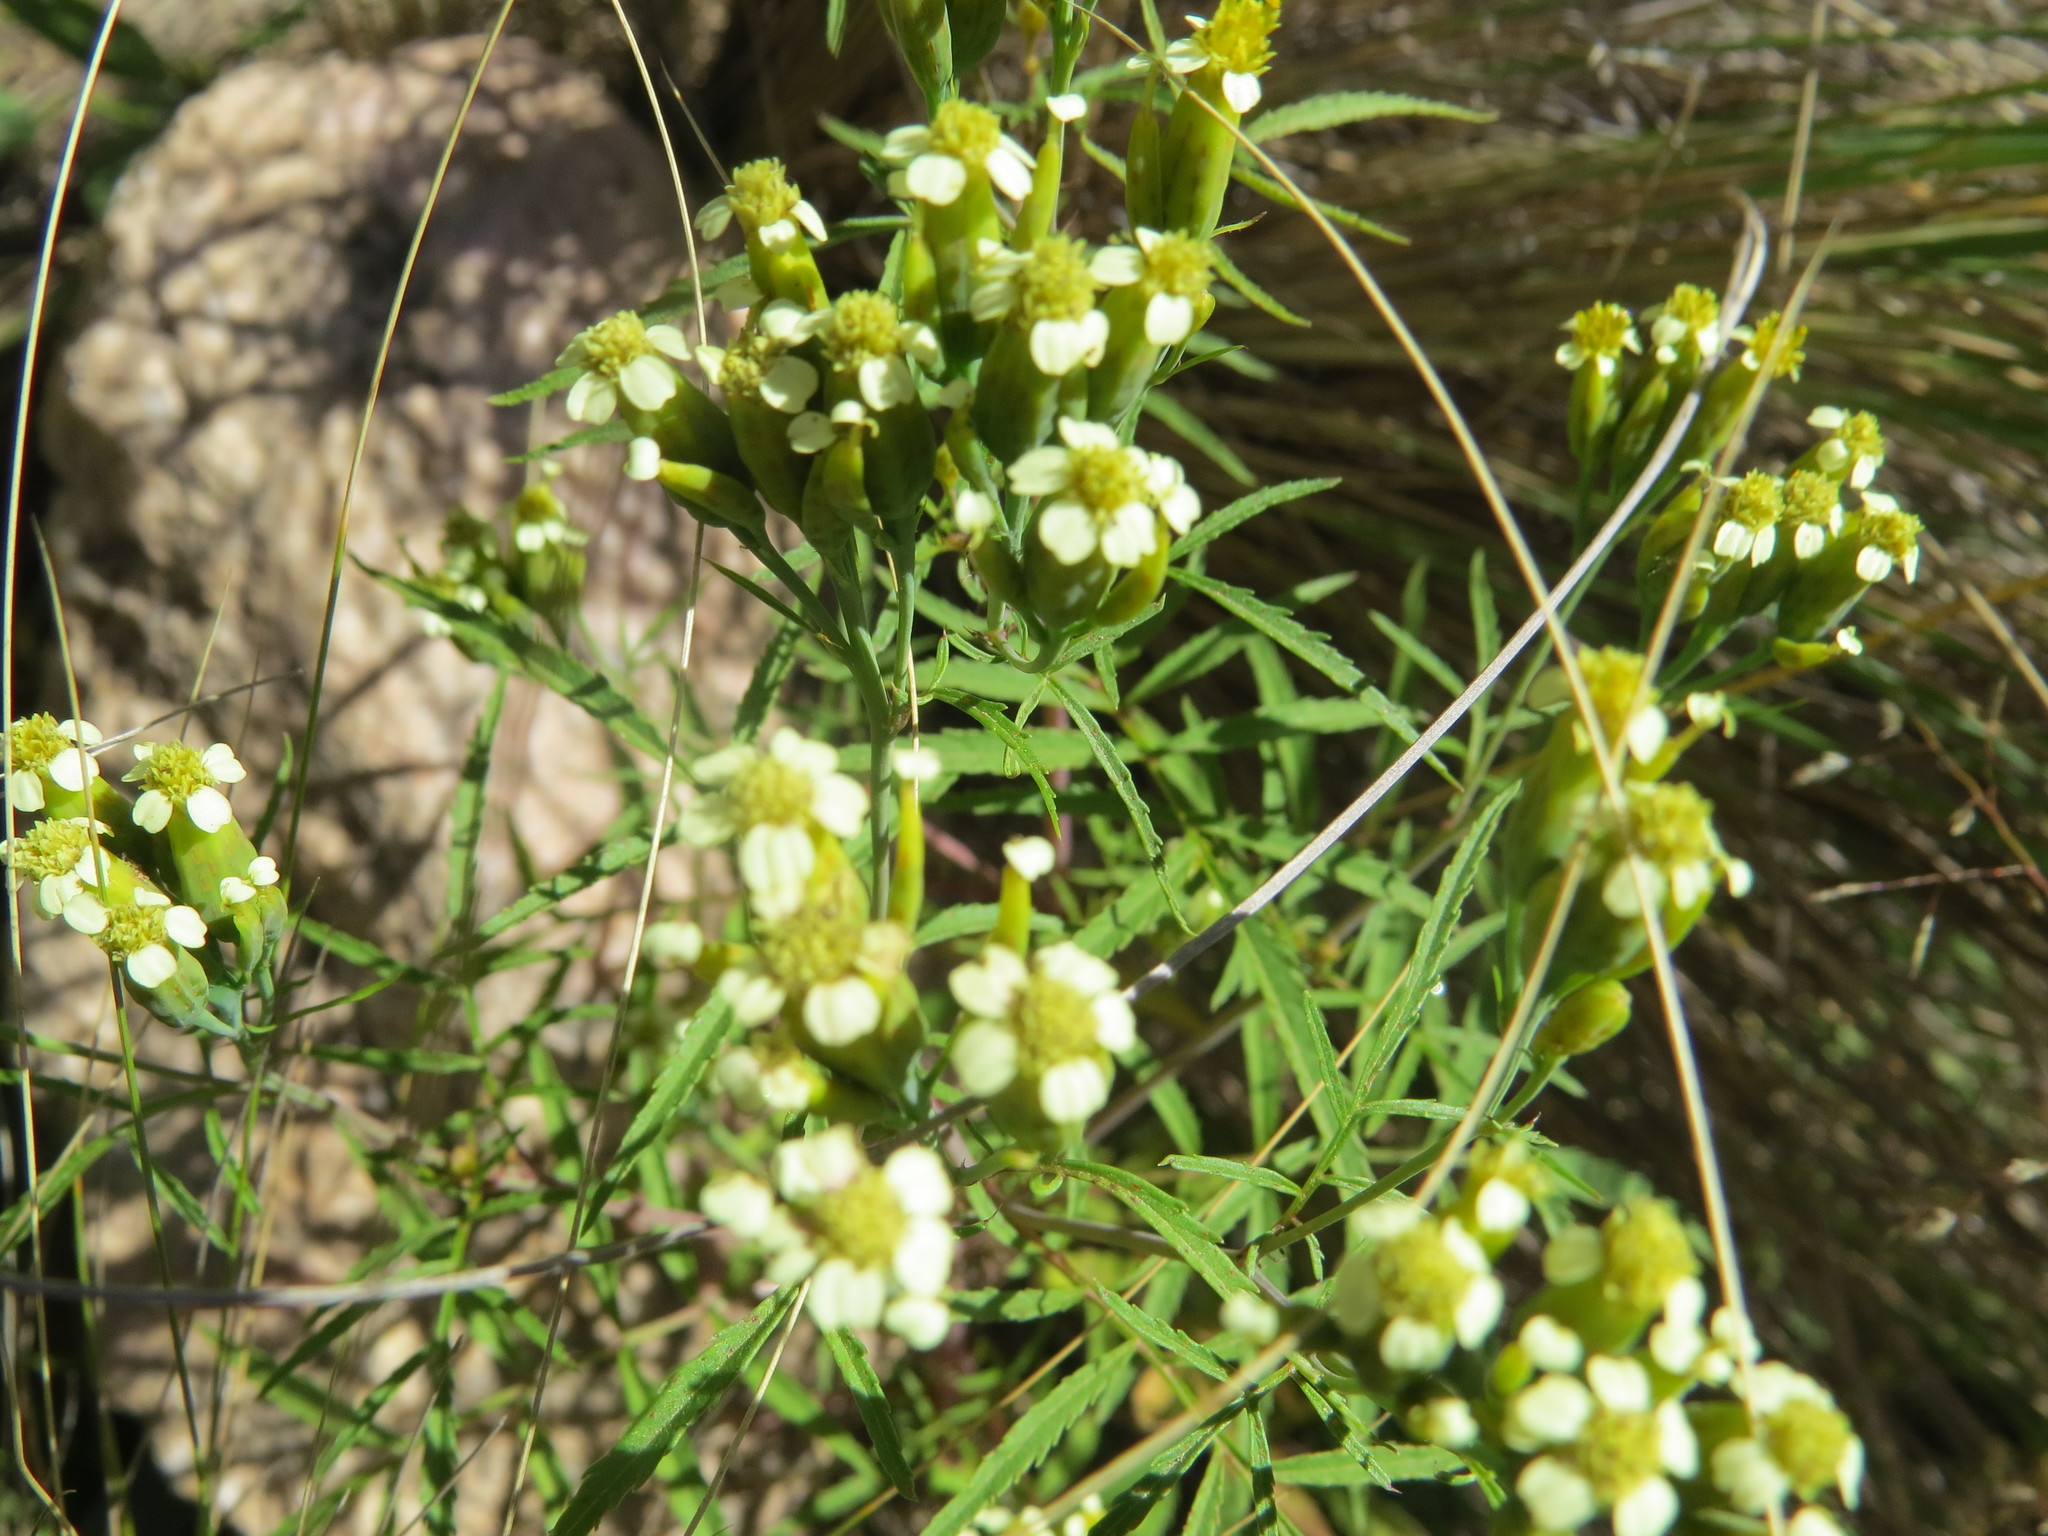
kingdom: Plantae
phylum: Tracheophyta
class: Magnoliopsida
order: Asterales
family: Asteraceae
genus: Tagetes
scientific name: Tagetes terniflora
